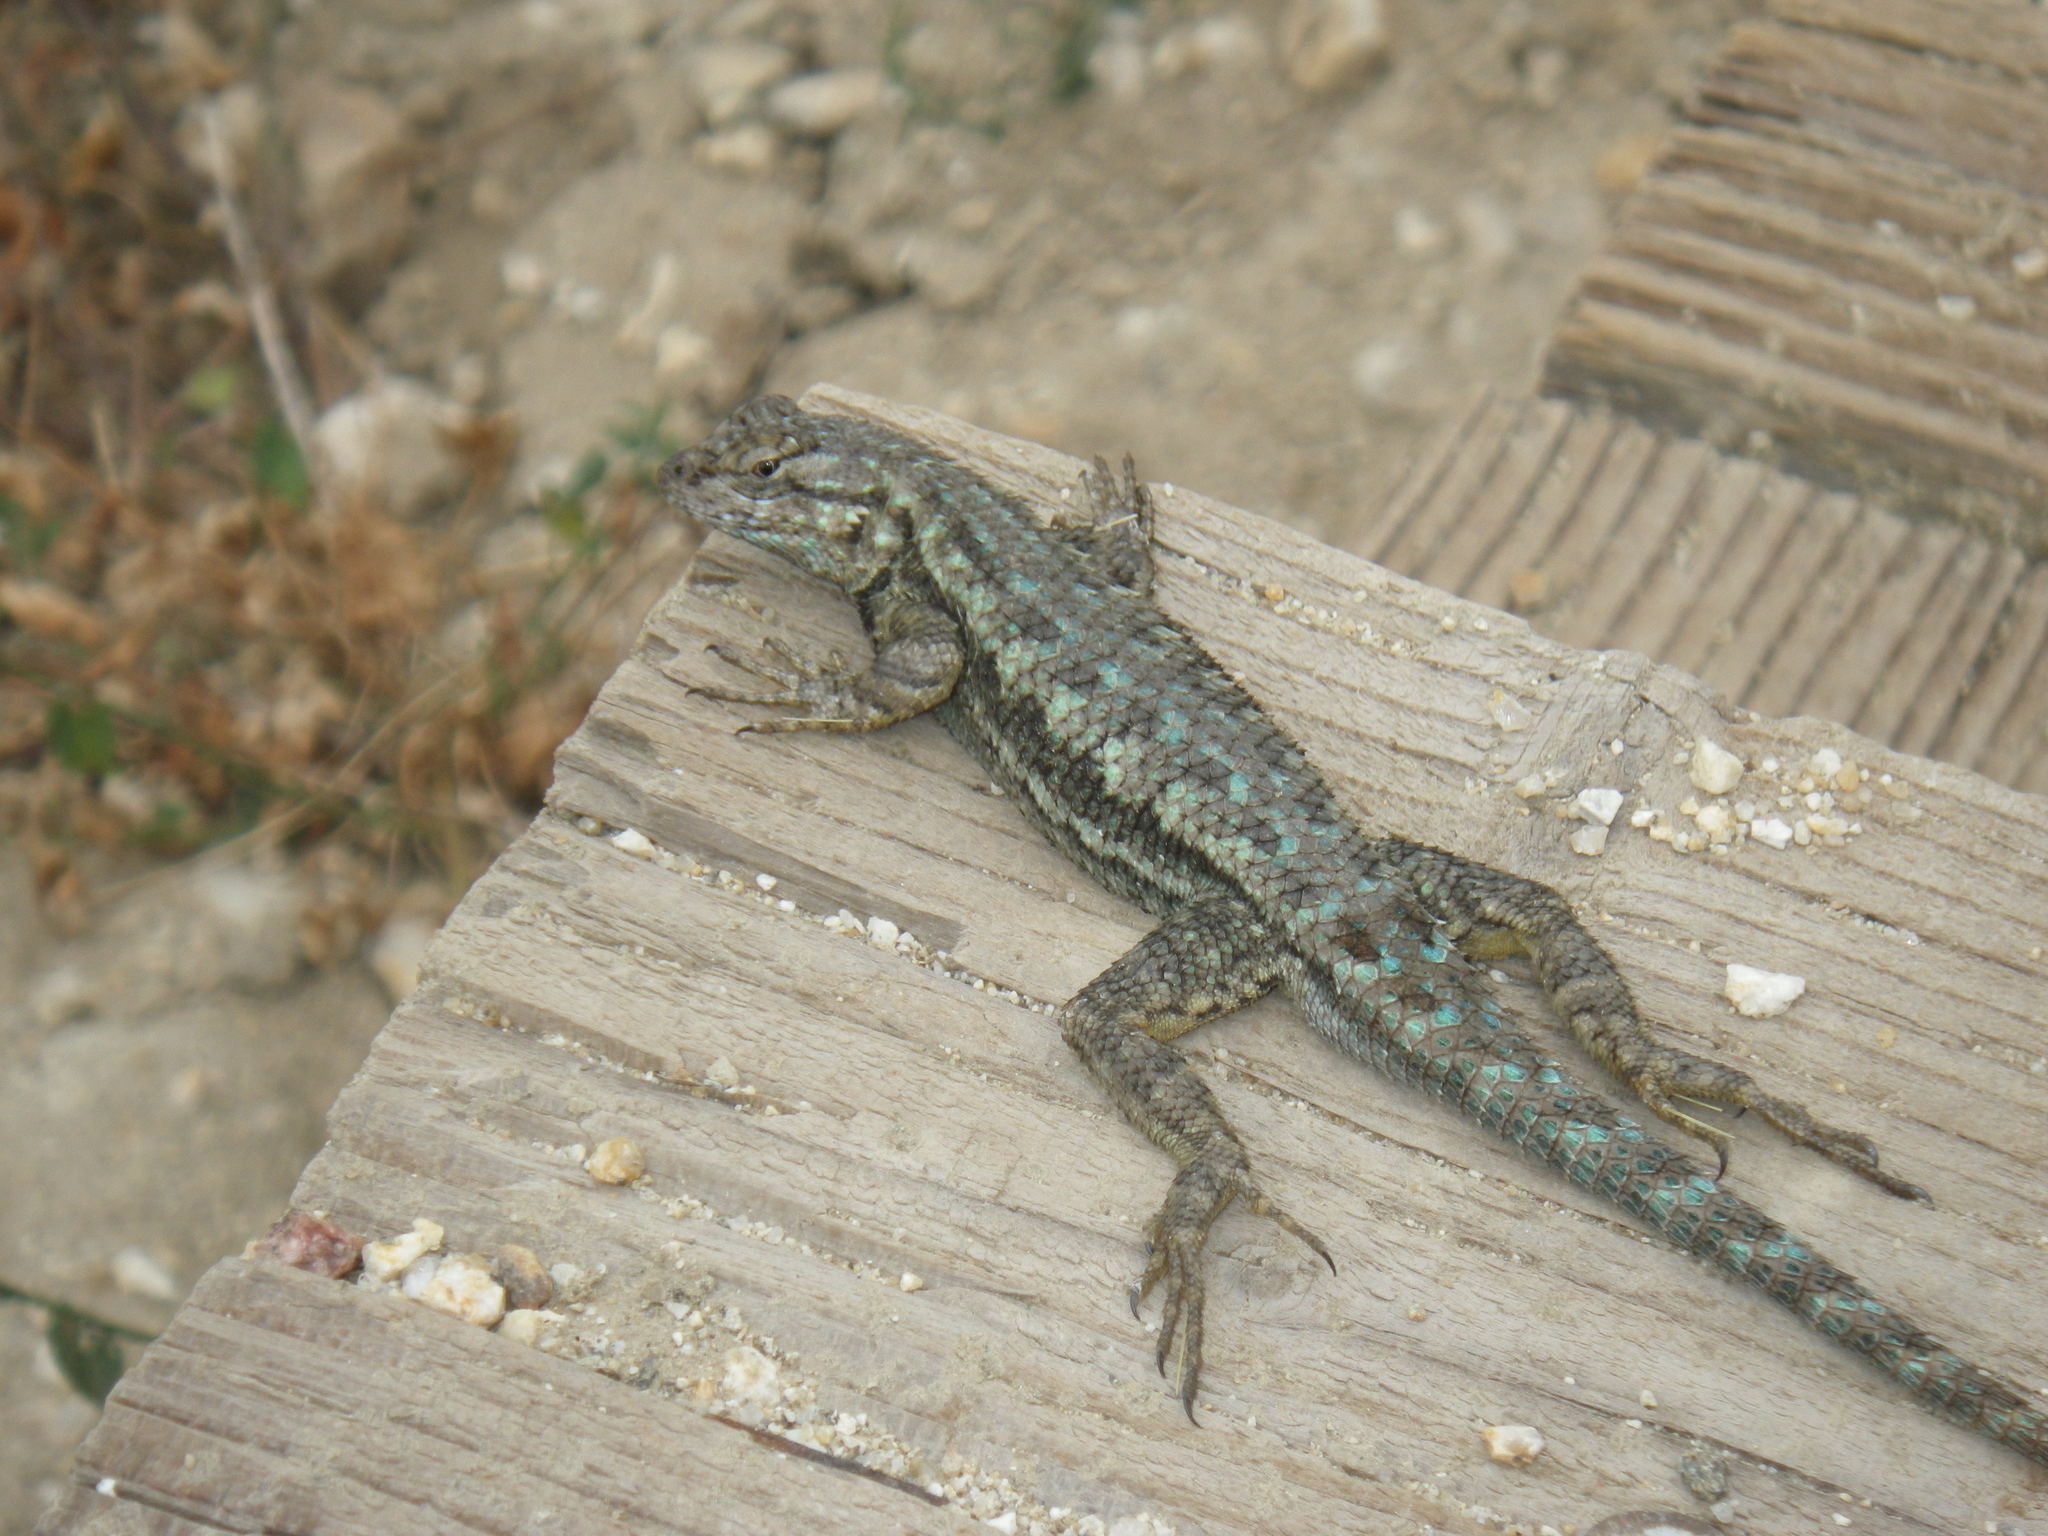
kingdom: Animalia
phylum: Chordata
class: Squamata
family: Phrynosomatidae
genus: Sceloporus
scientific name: Sceloporus occidentalis
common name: Western fence lizard
